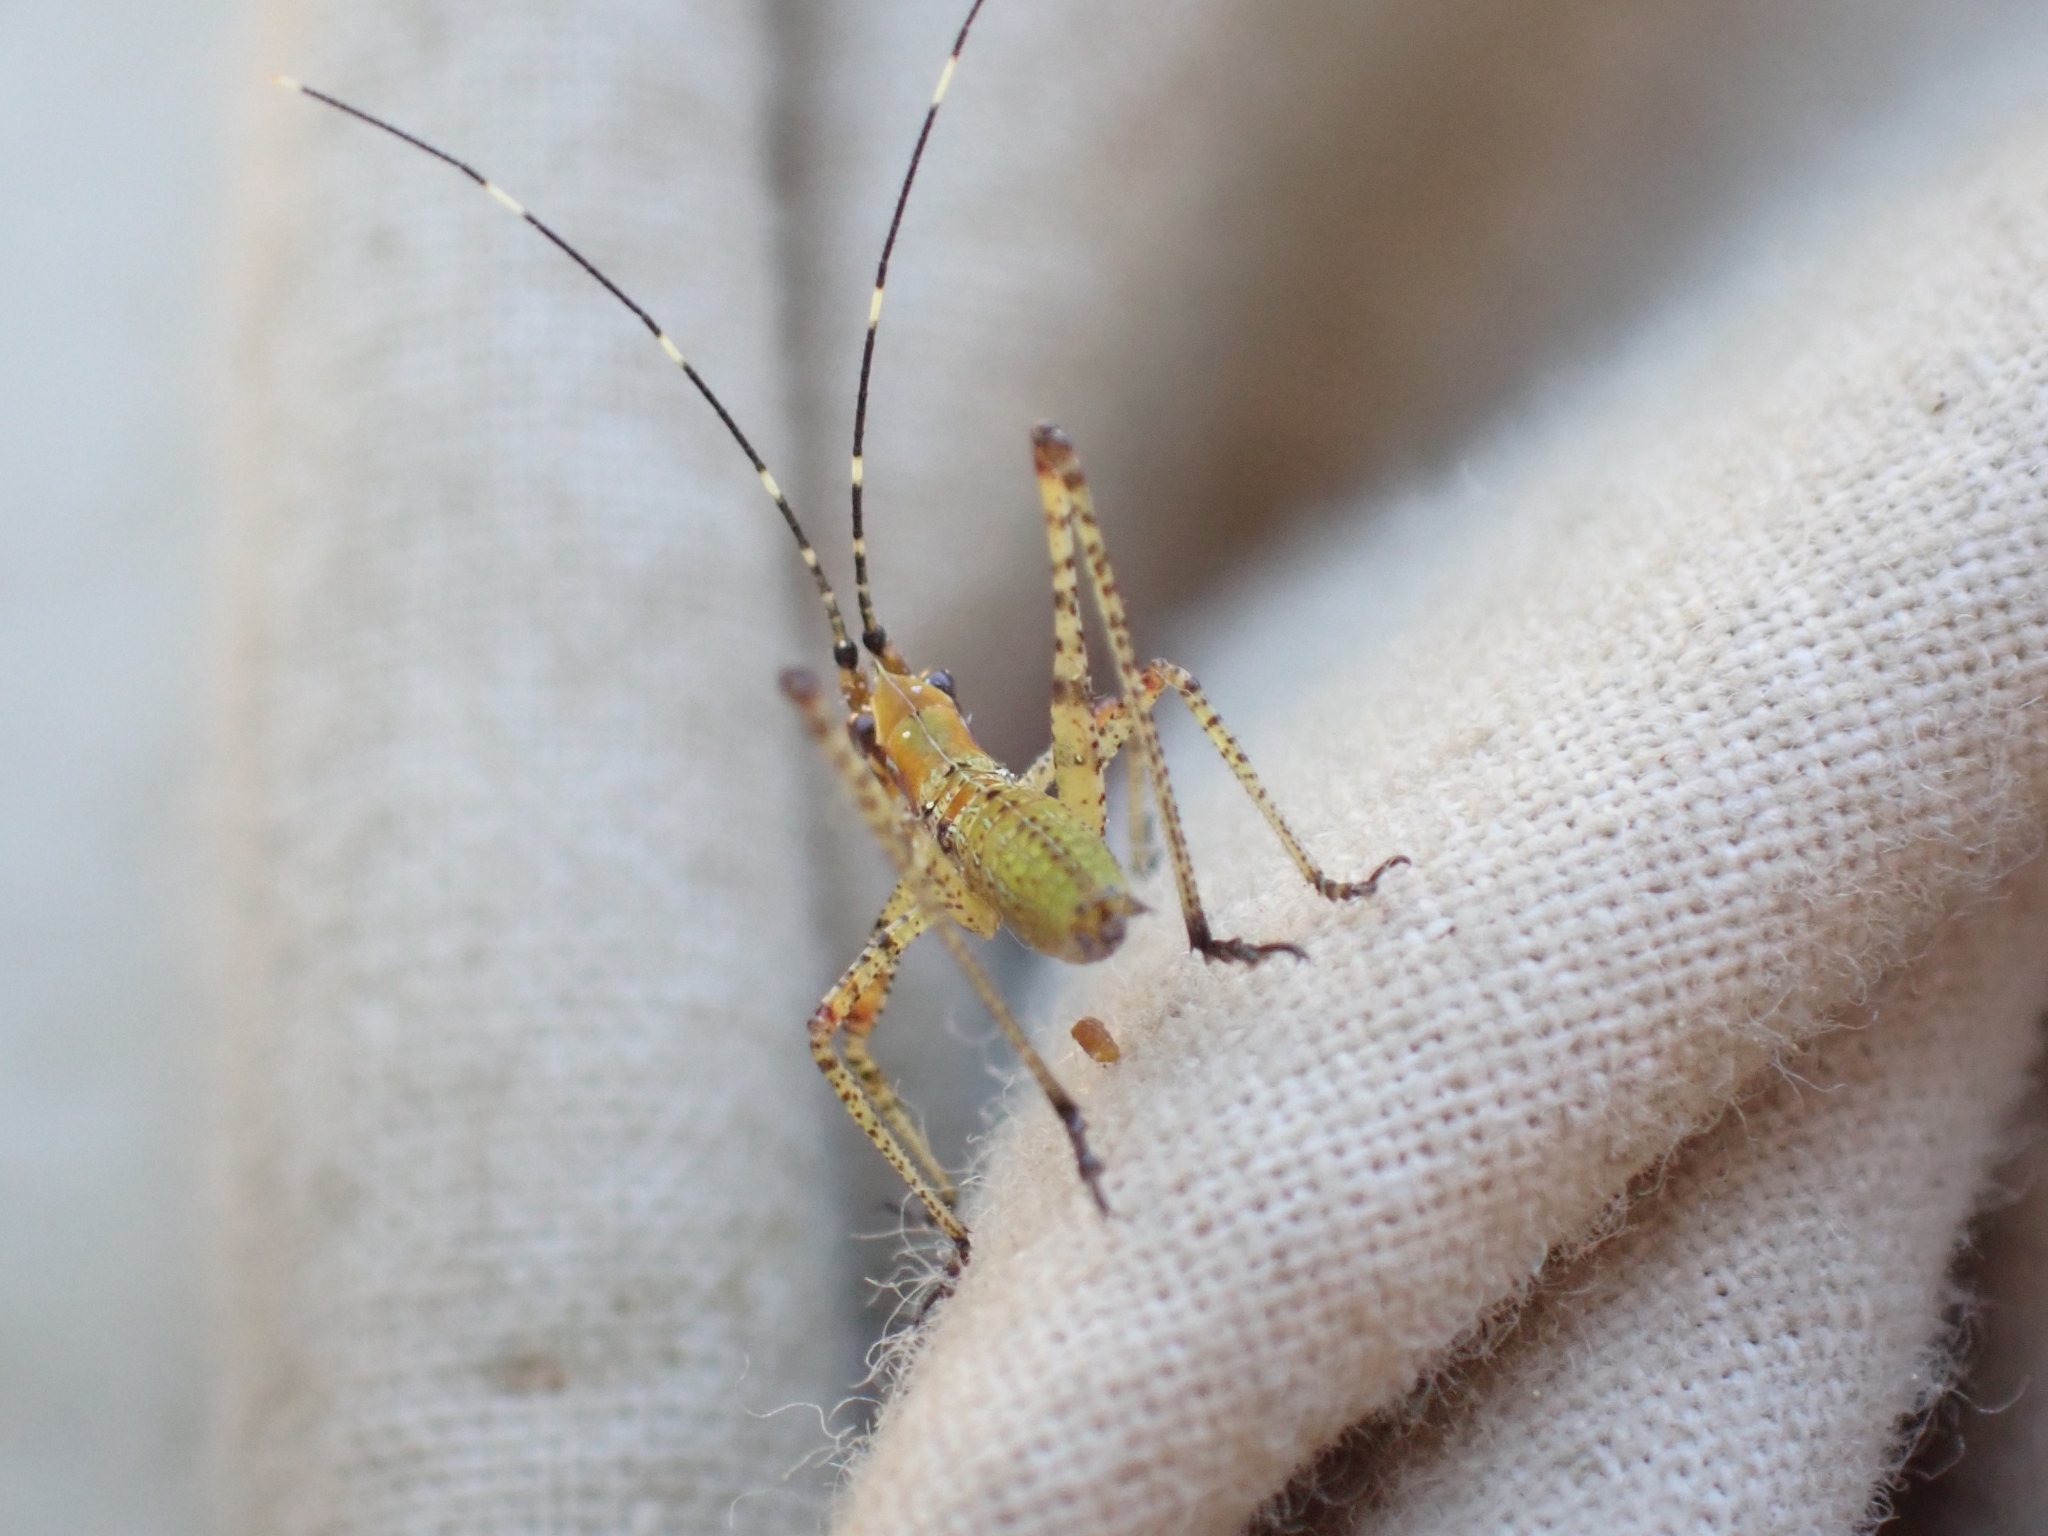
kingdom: Animalia
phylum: Arthropoda
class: Insecta
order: Orthoptera
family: Tettigoniidae
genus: Scudderia
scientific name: Scudderia furcata
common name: Fork-tailed bush katydid
